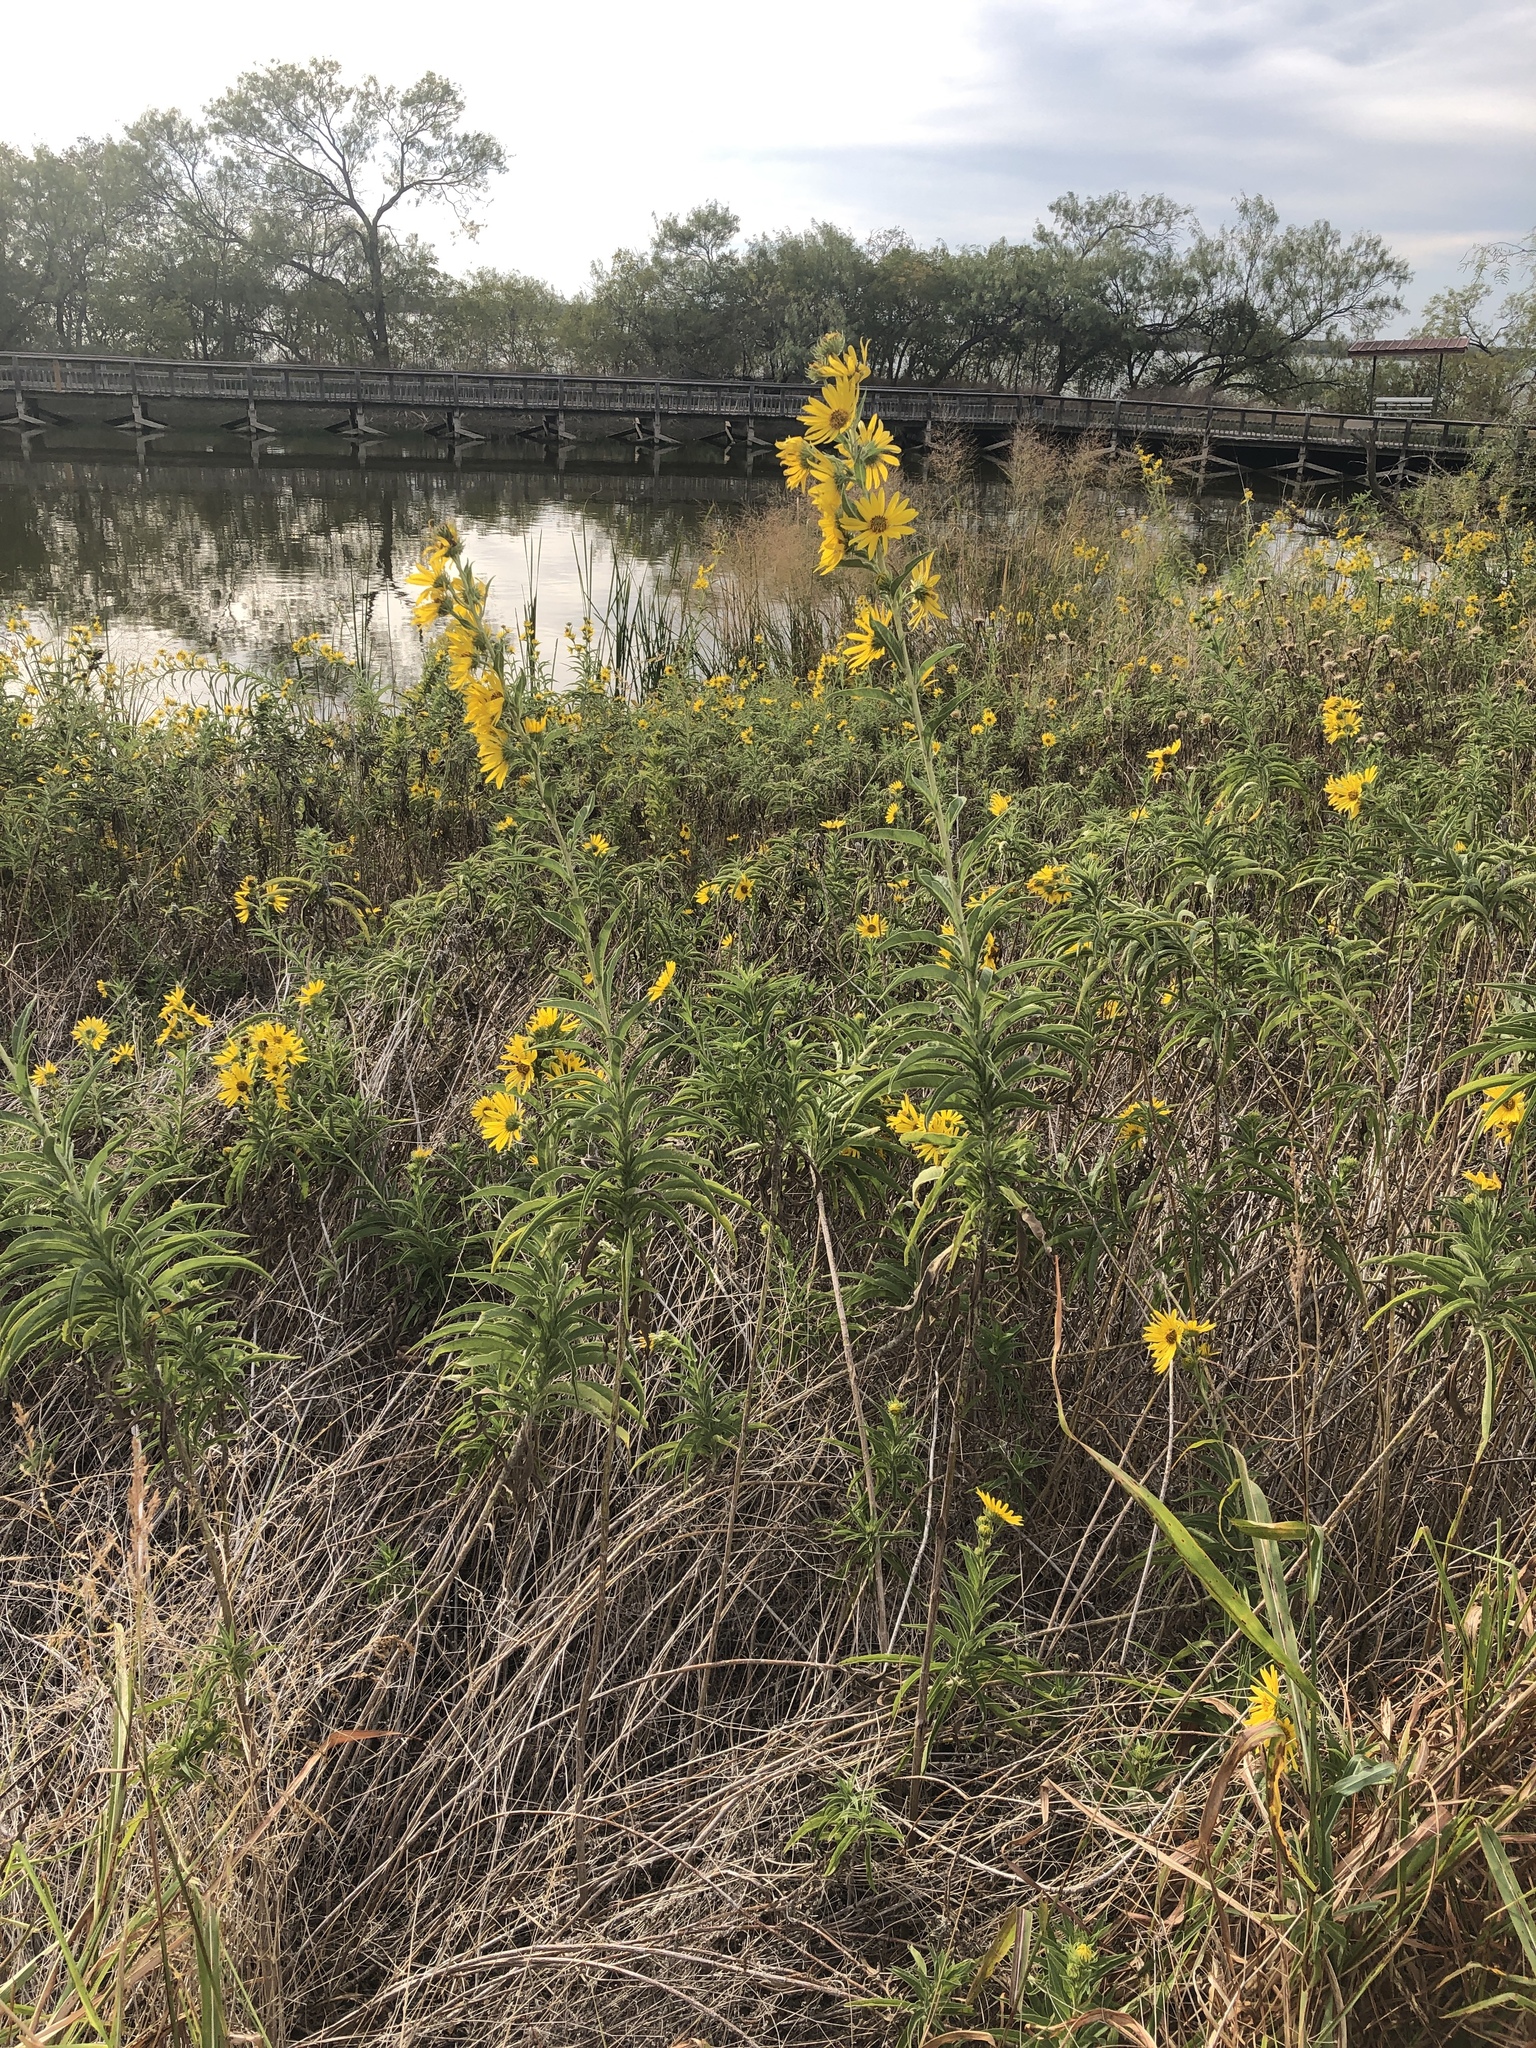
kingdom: Plantae
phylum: Tracheophyta
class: Magnoliopsida
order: Asterales
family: Asteraceae
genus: Helianthus
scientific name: Helianthus maximiliani
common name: Maximilian's sunflower
